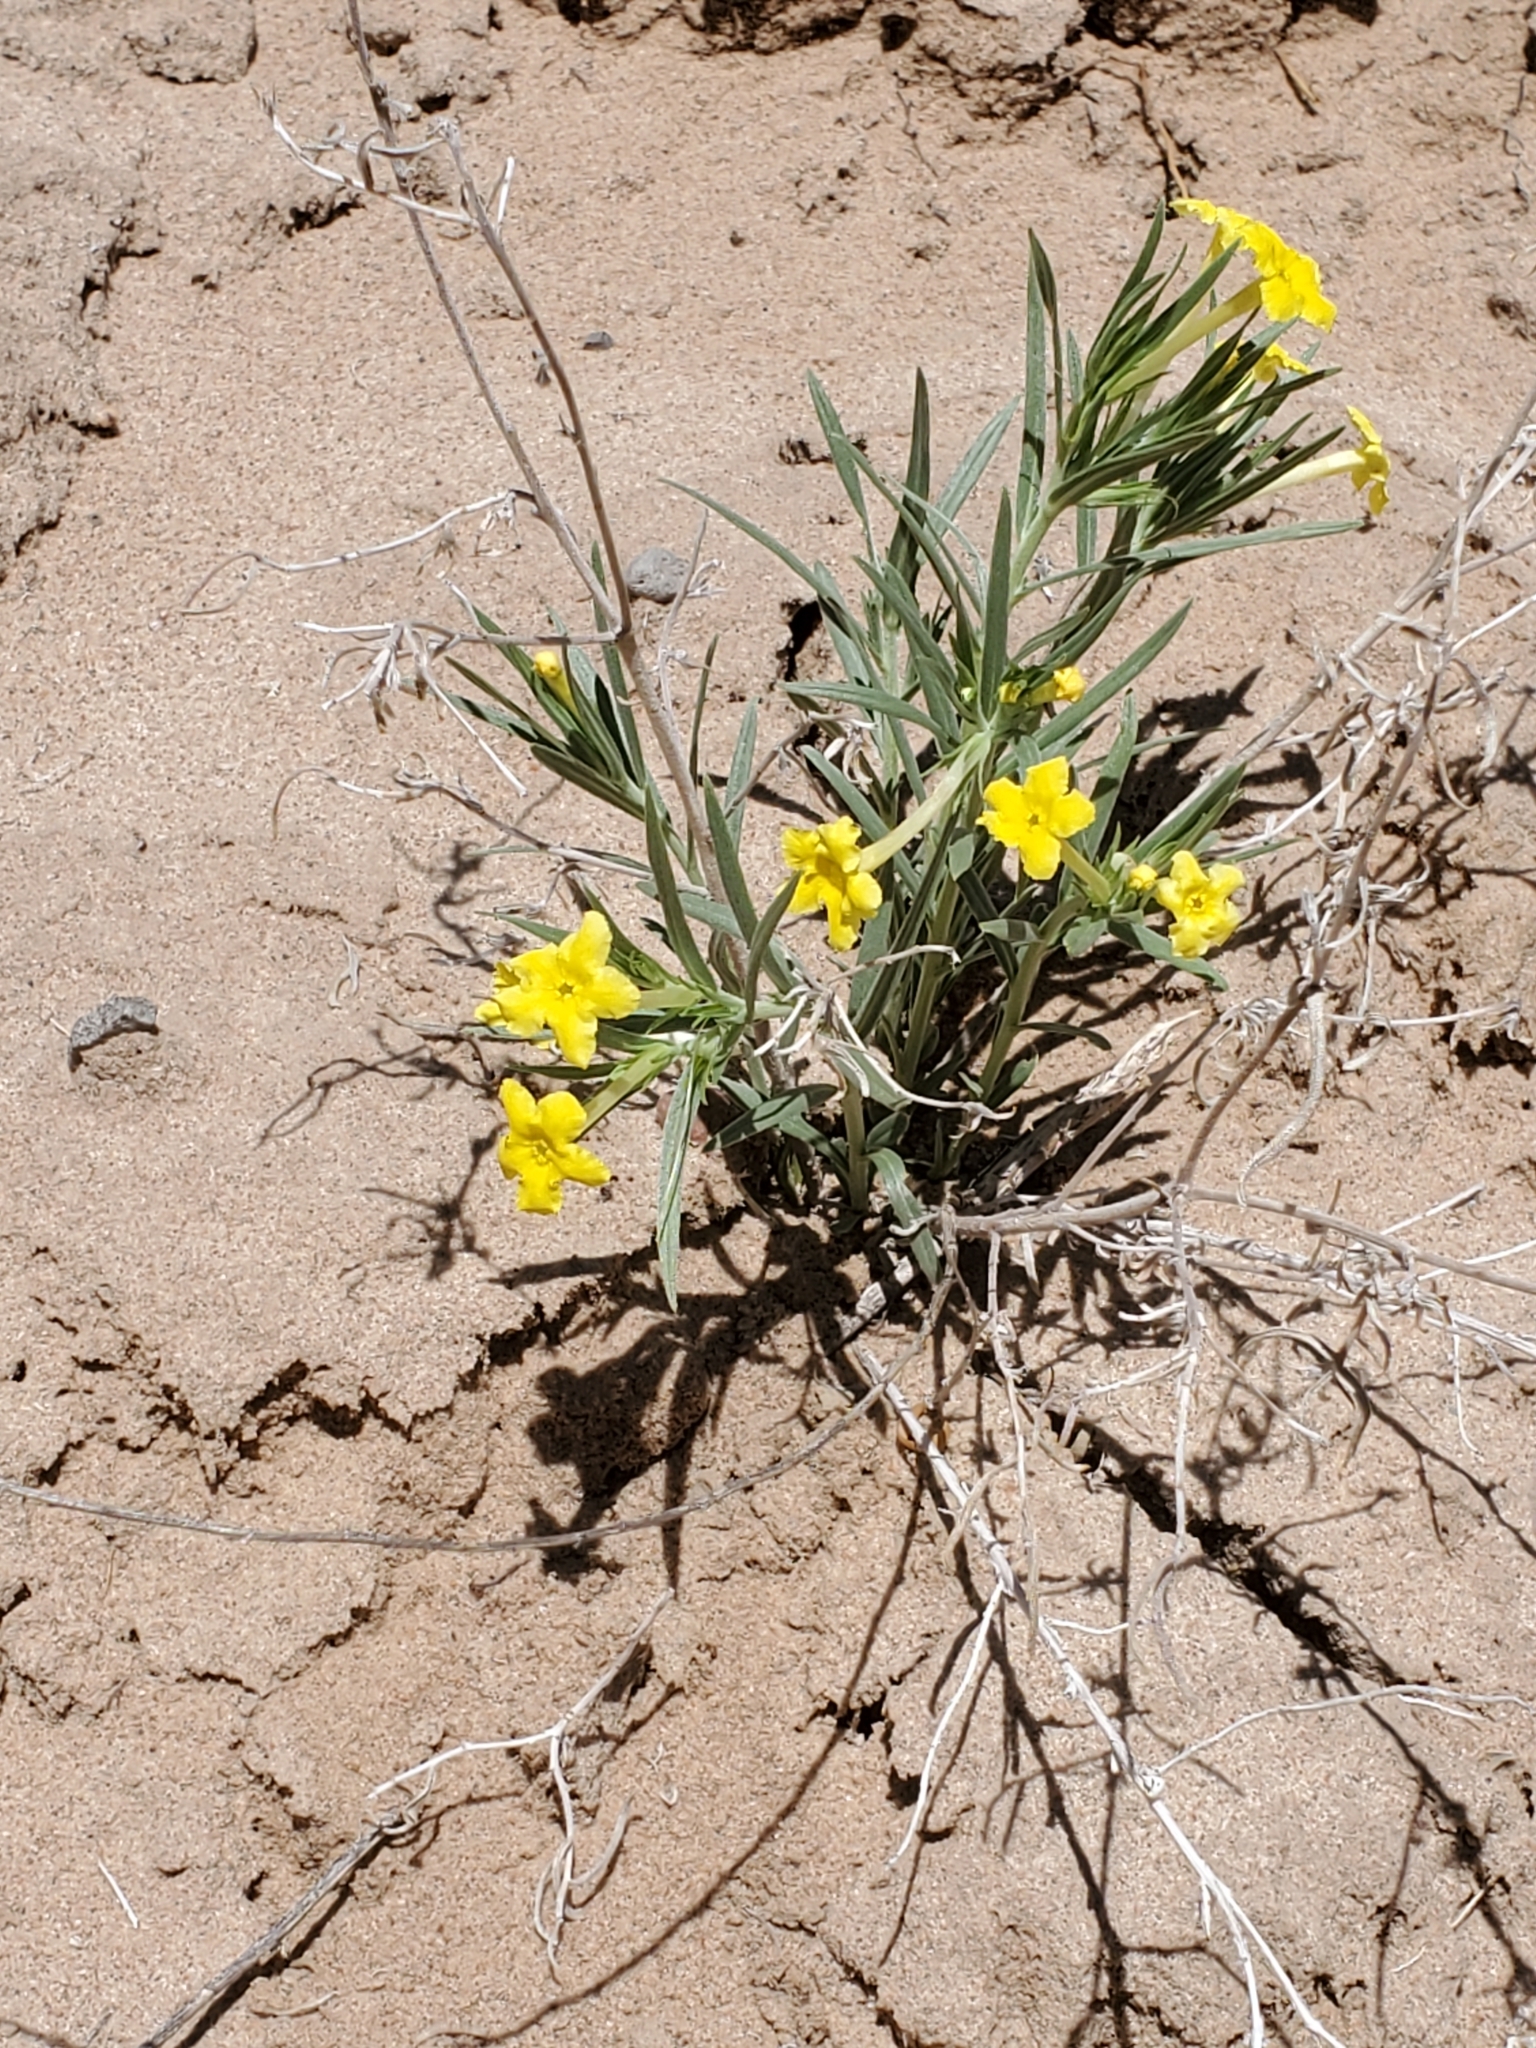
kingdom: Plantae
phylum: Tracheophyta
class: Magnoliopsida
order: Boraginales
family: Boraginaceae
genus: Lithospermum
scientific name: Lithospermum incisum
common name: Fringed gromwell
